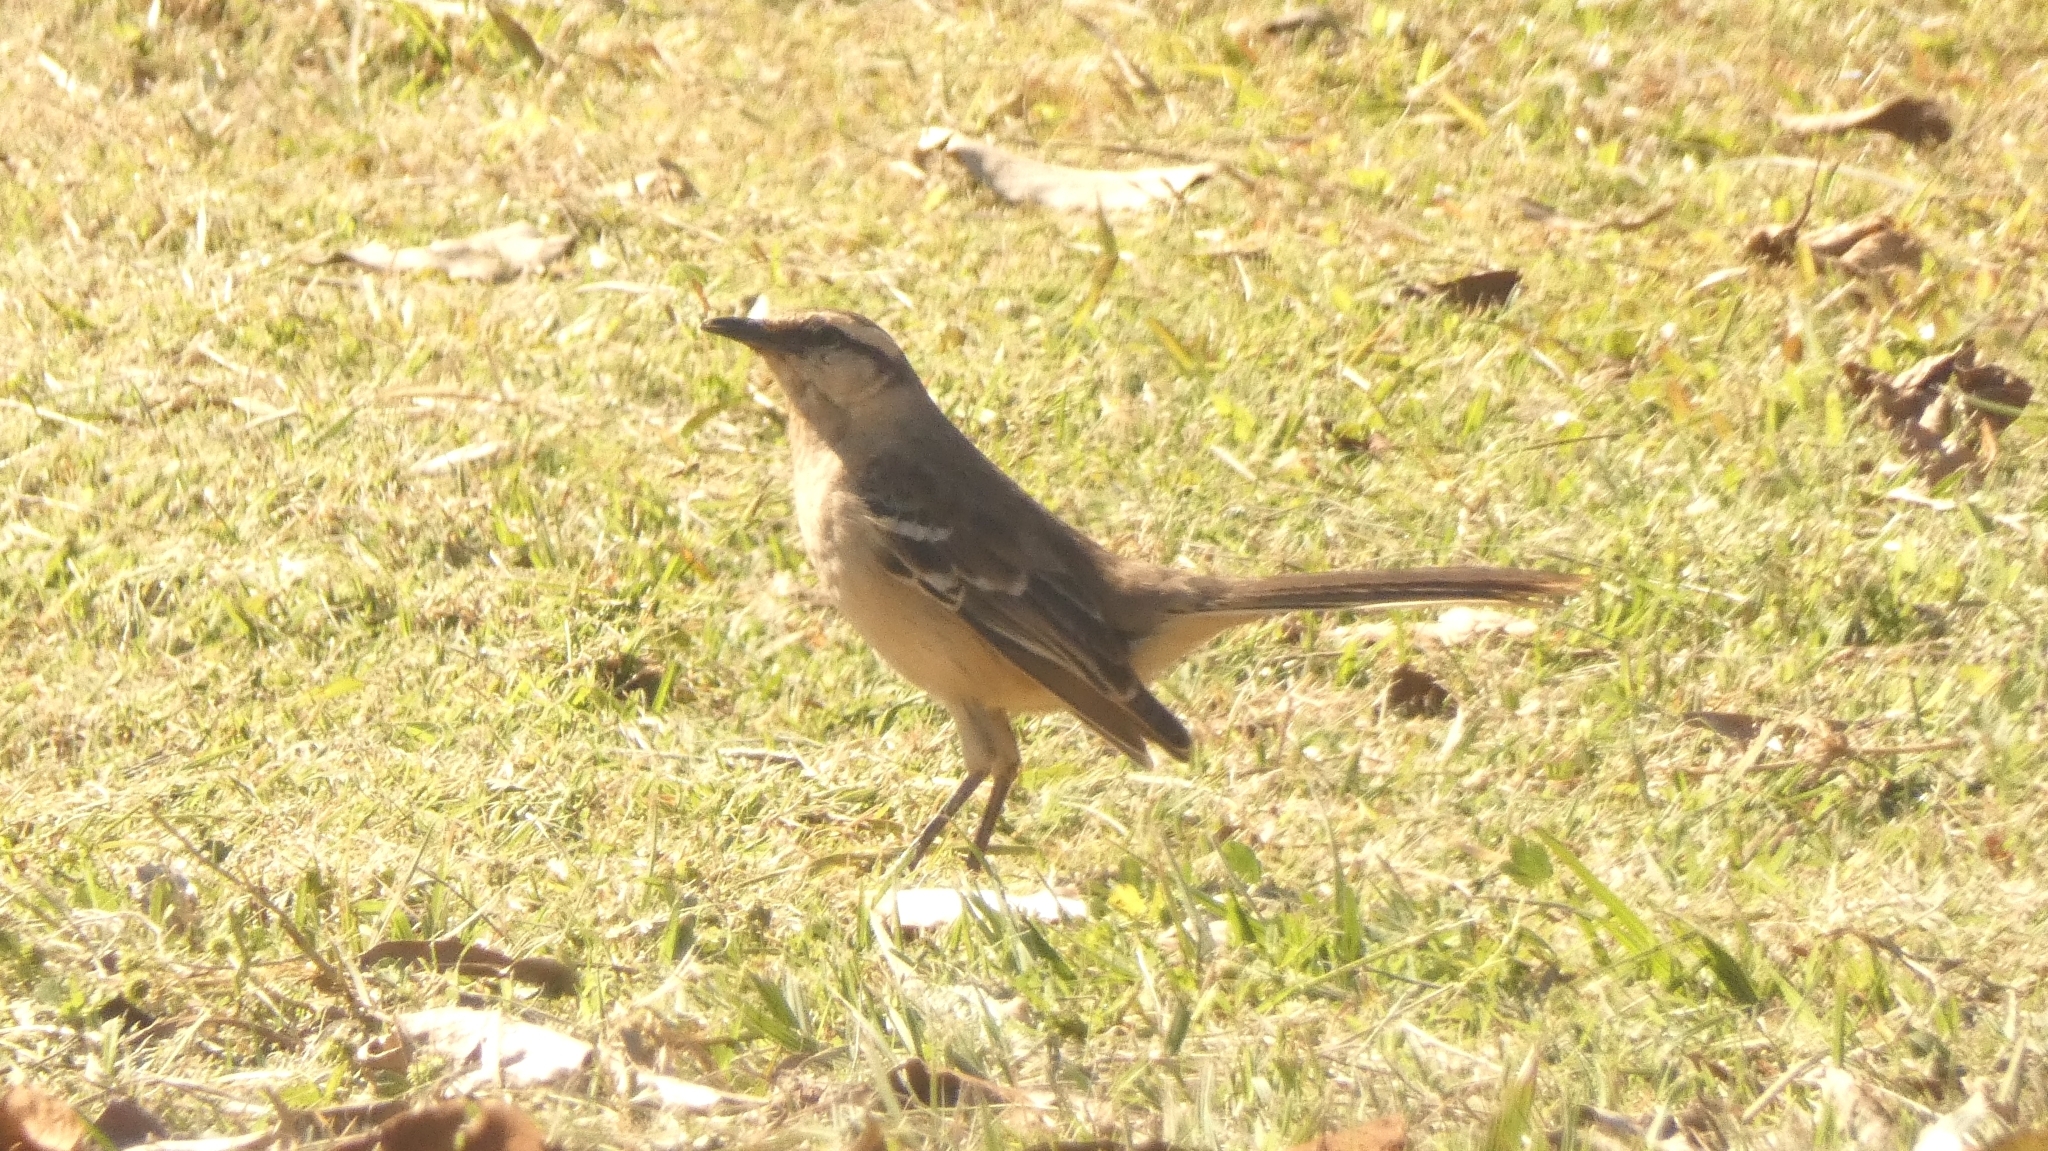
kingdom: Animalia
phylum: Chordata
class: Aves
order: Passeriformes
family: Mimidae
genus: Mimus
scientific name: Mimus saturninus
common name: Chalk-browed mockingbird
